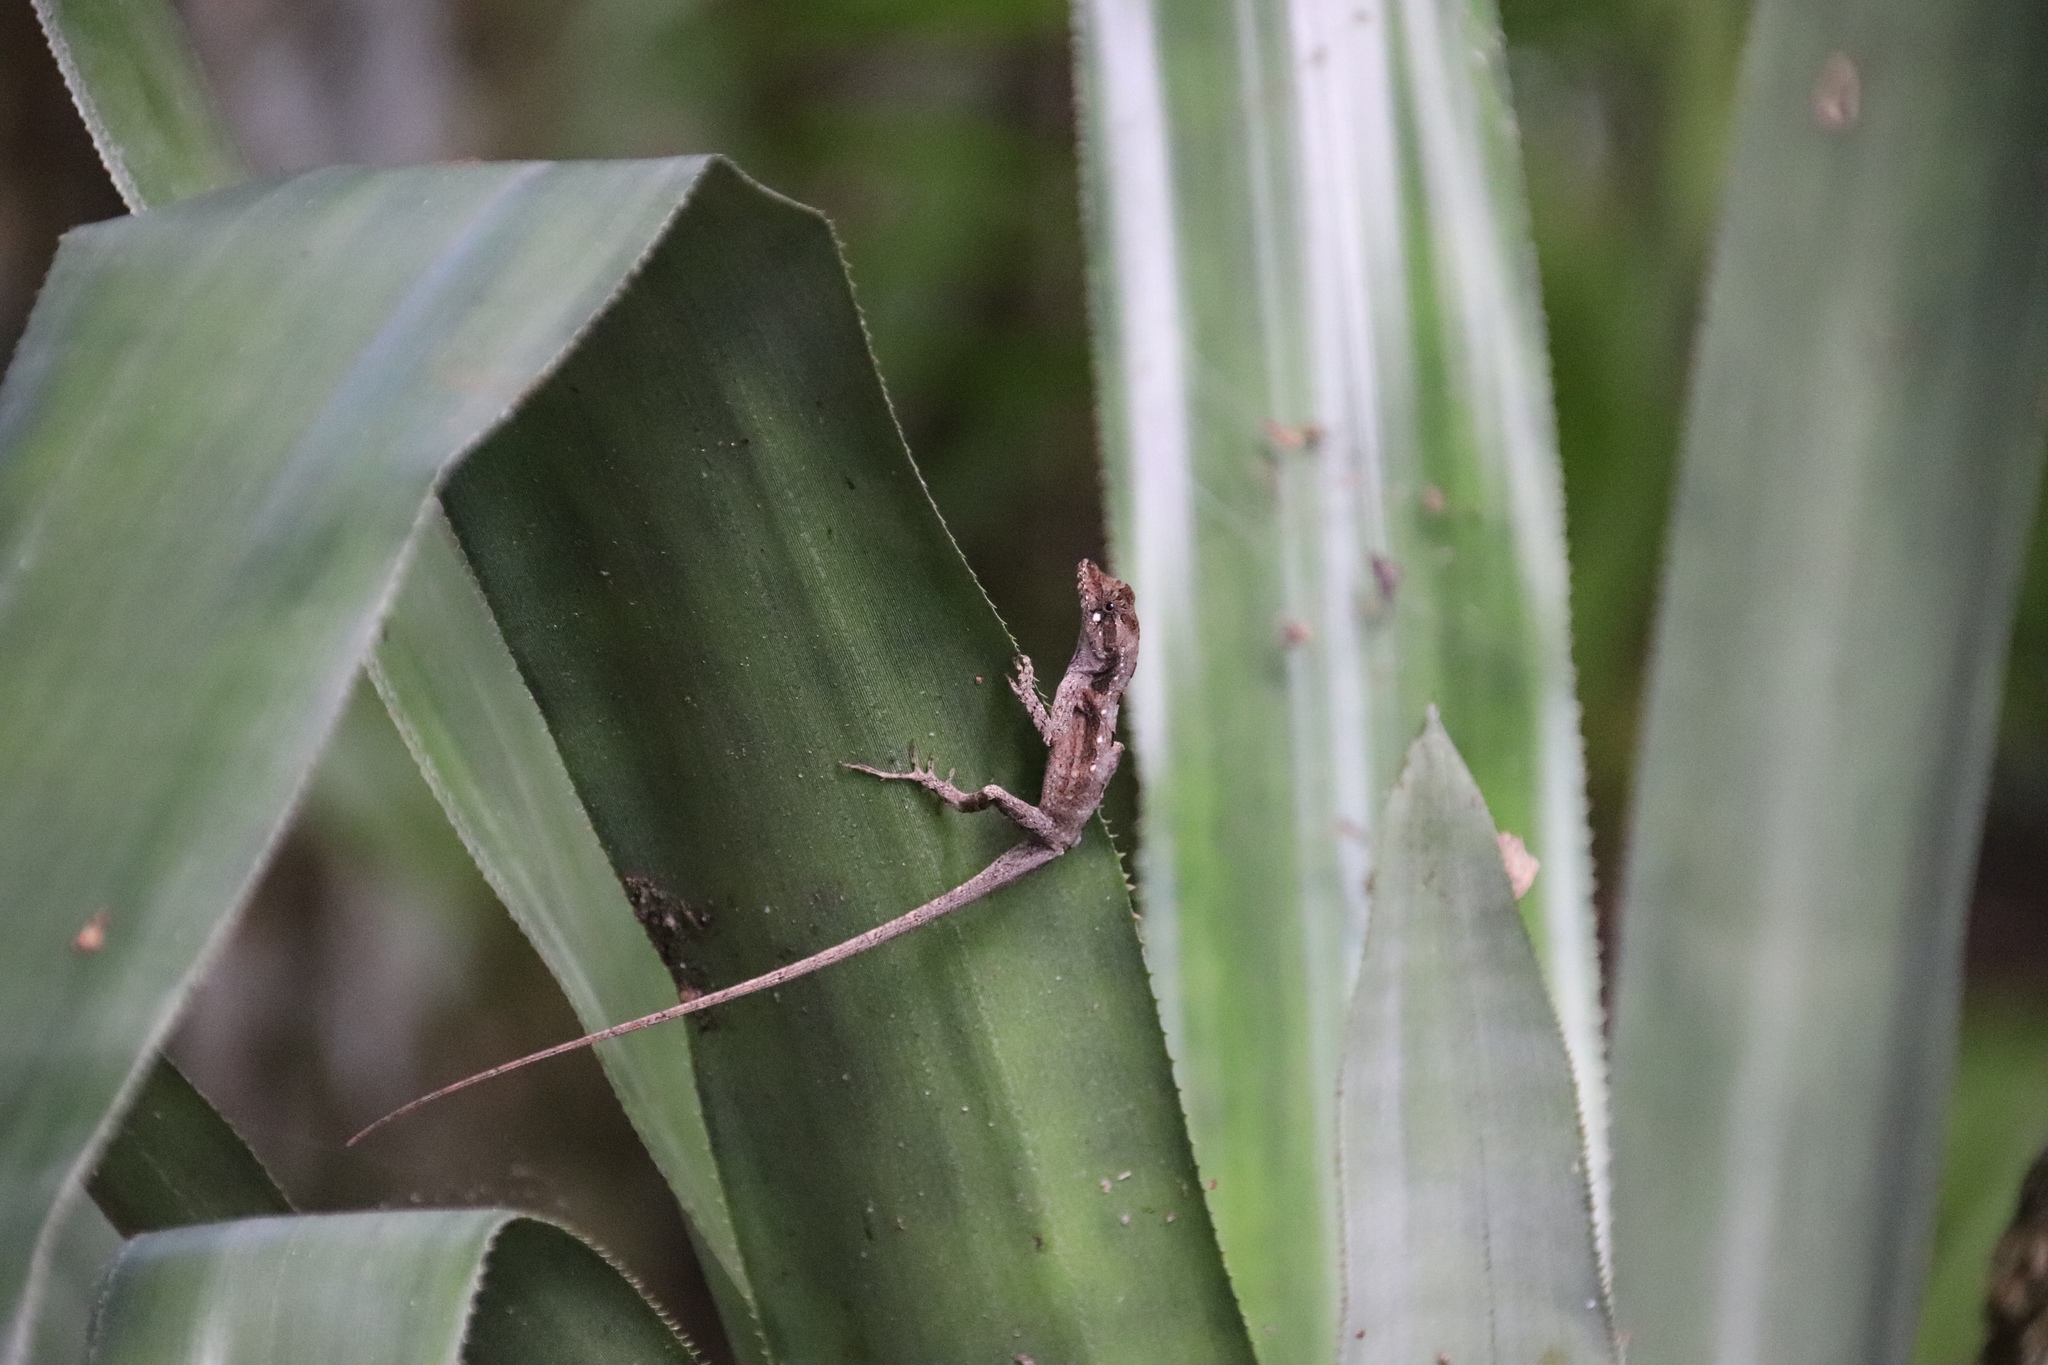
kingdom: Animalia
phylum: Chordata
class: Squamata
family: Dactyloidae
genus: Anolis
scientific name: Anolis lemurinus
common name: Ghost anole
